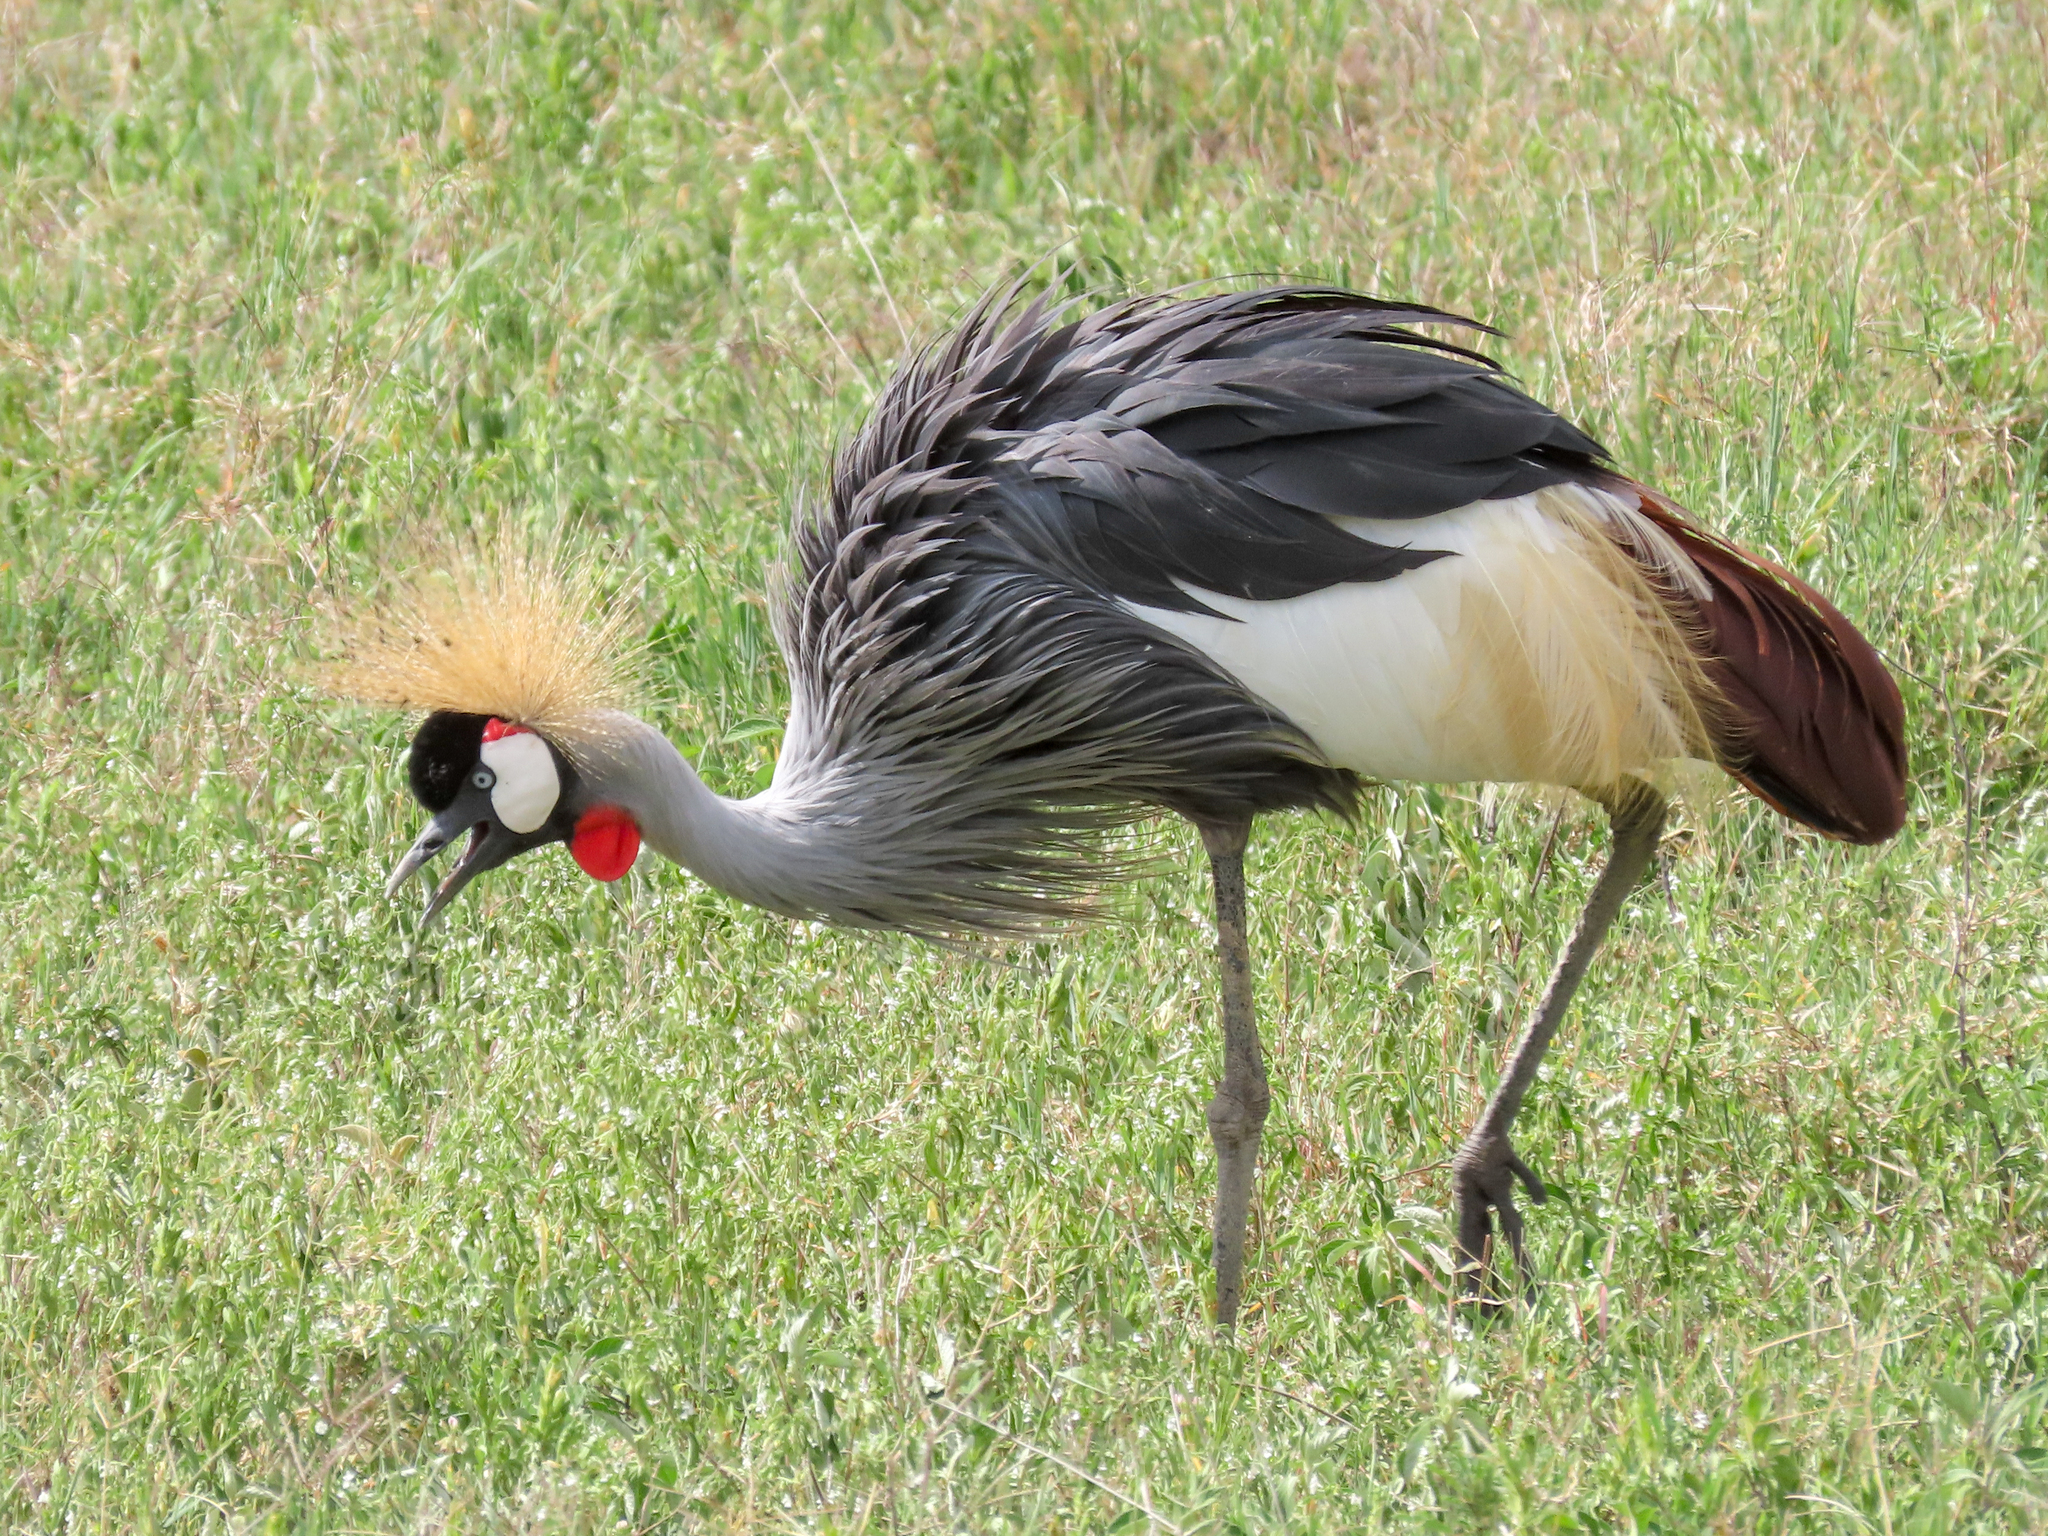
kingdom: Animalia
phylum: Chordata
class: Aves
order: Gruiformes
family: Gruidae
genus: Balearica
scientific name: Balearica regulorum
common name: Grey crowned crane
